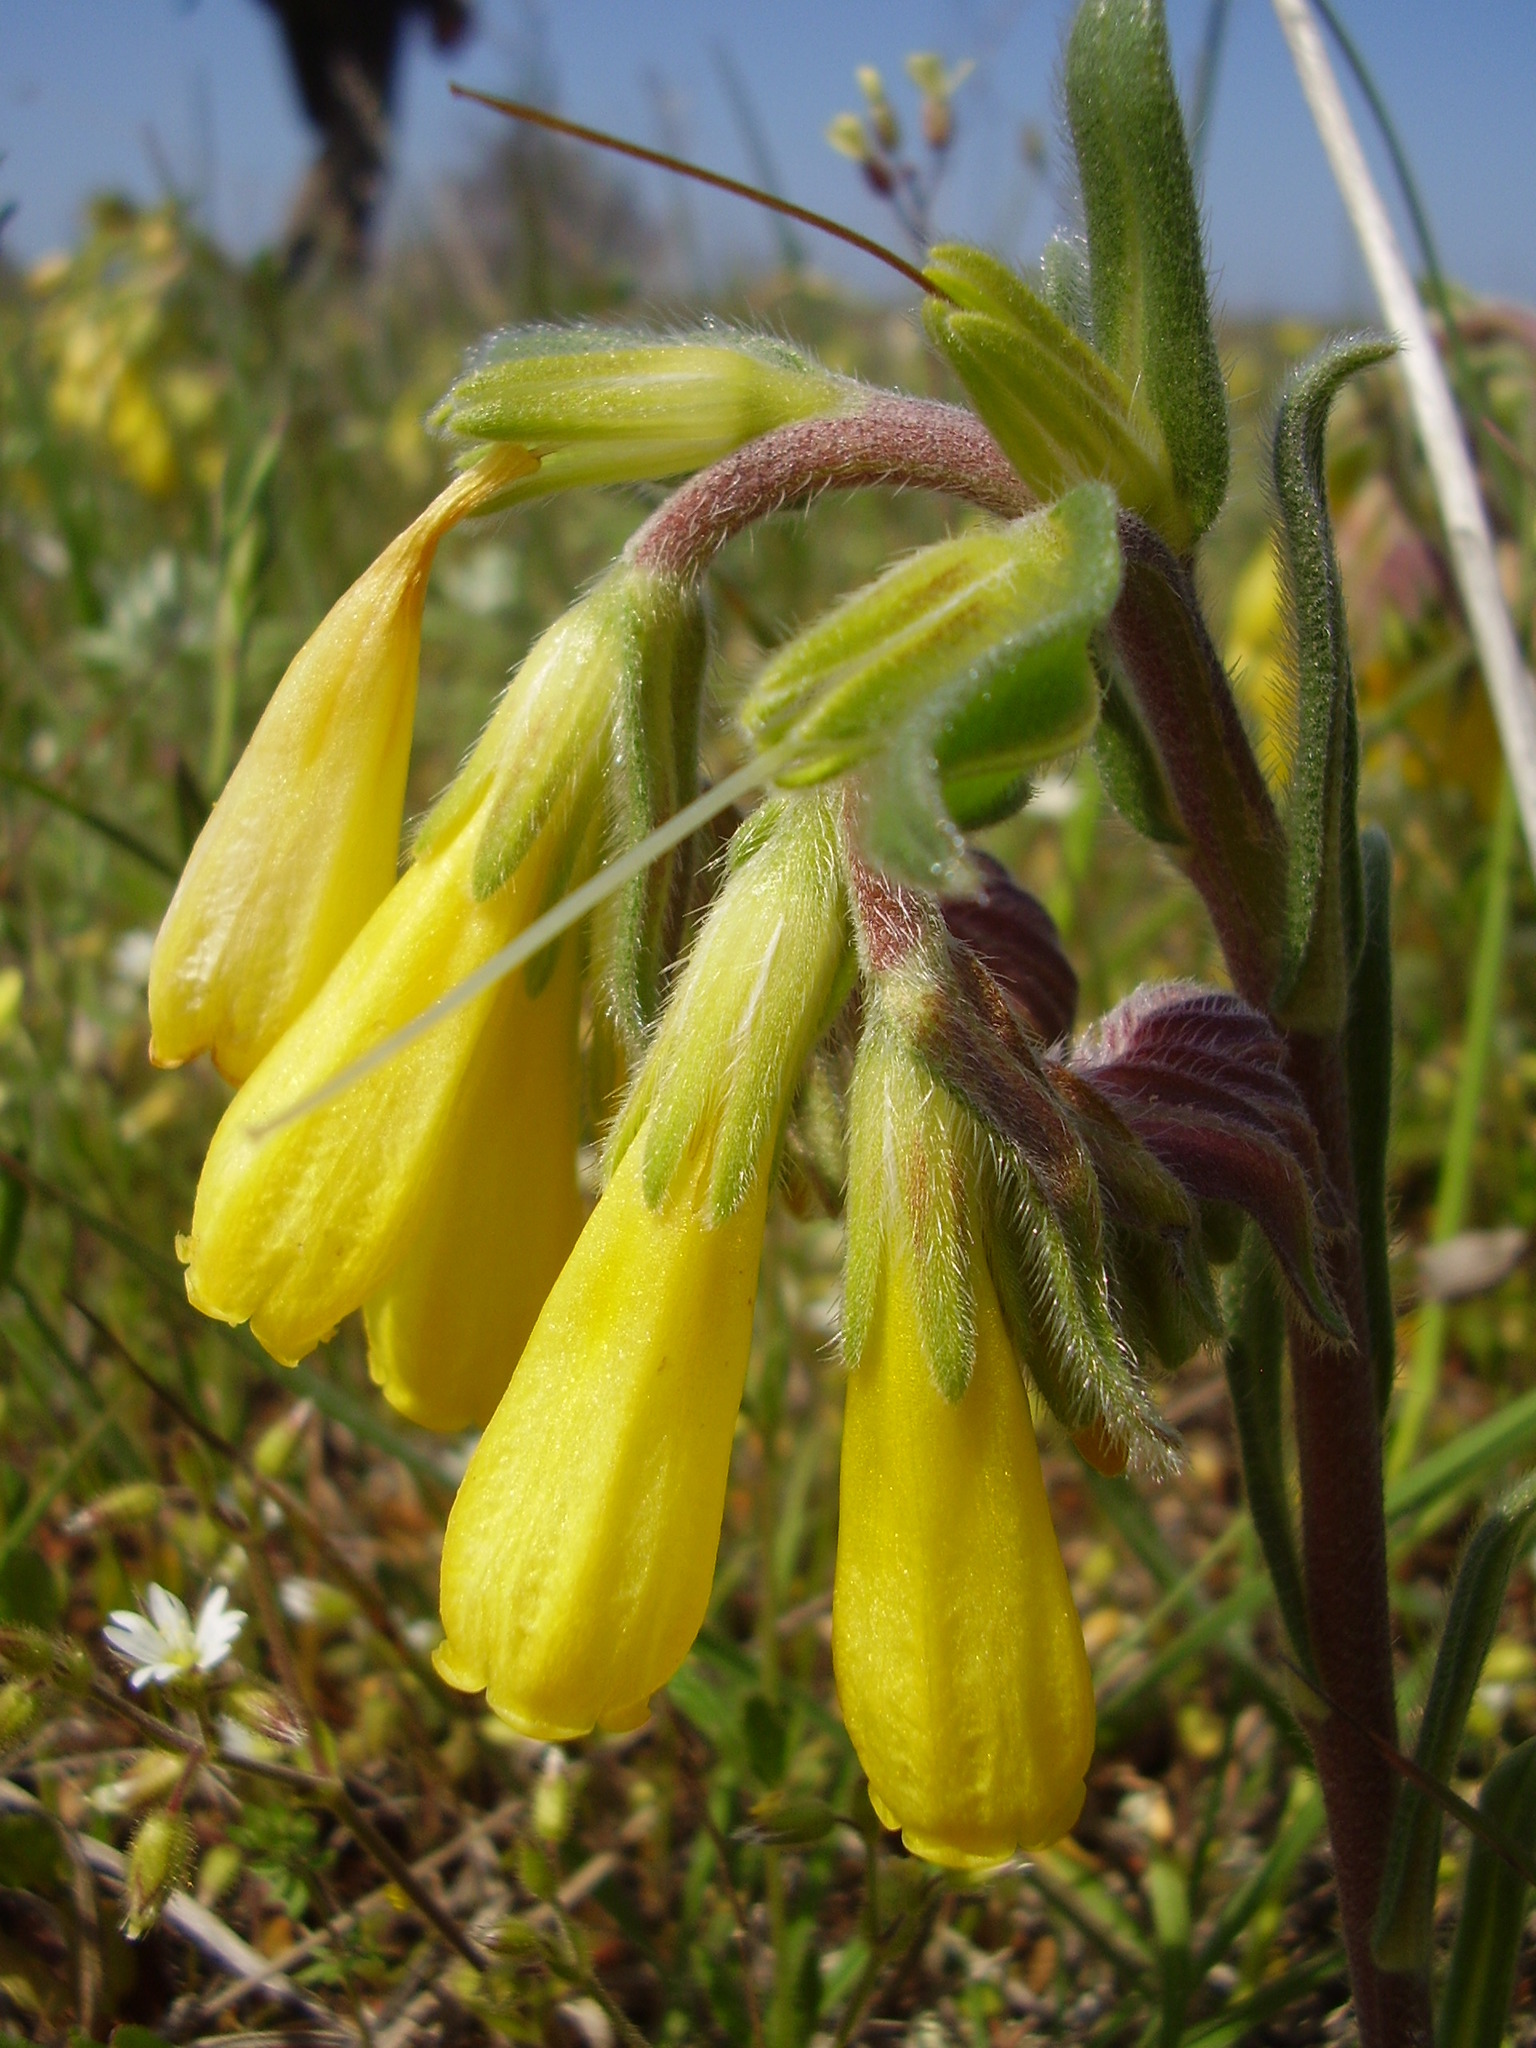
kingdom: Plantae
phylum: Tracheophyta
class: Magnoliopsida
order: Boraginales
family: Boraginaceae
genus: Onosma
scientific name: Onosma taurica
